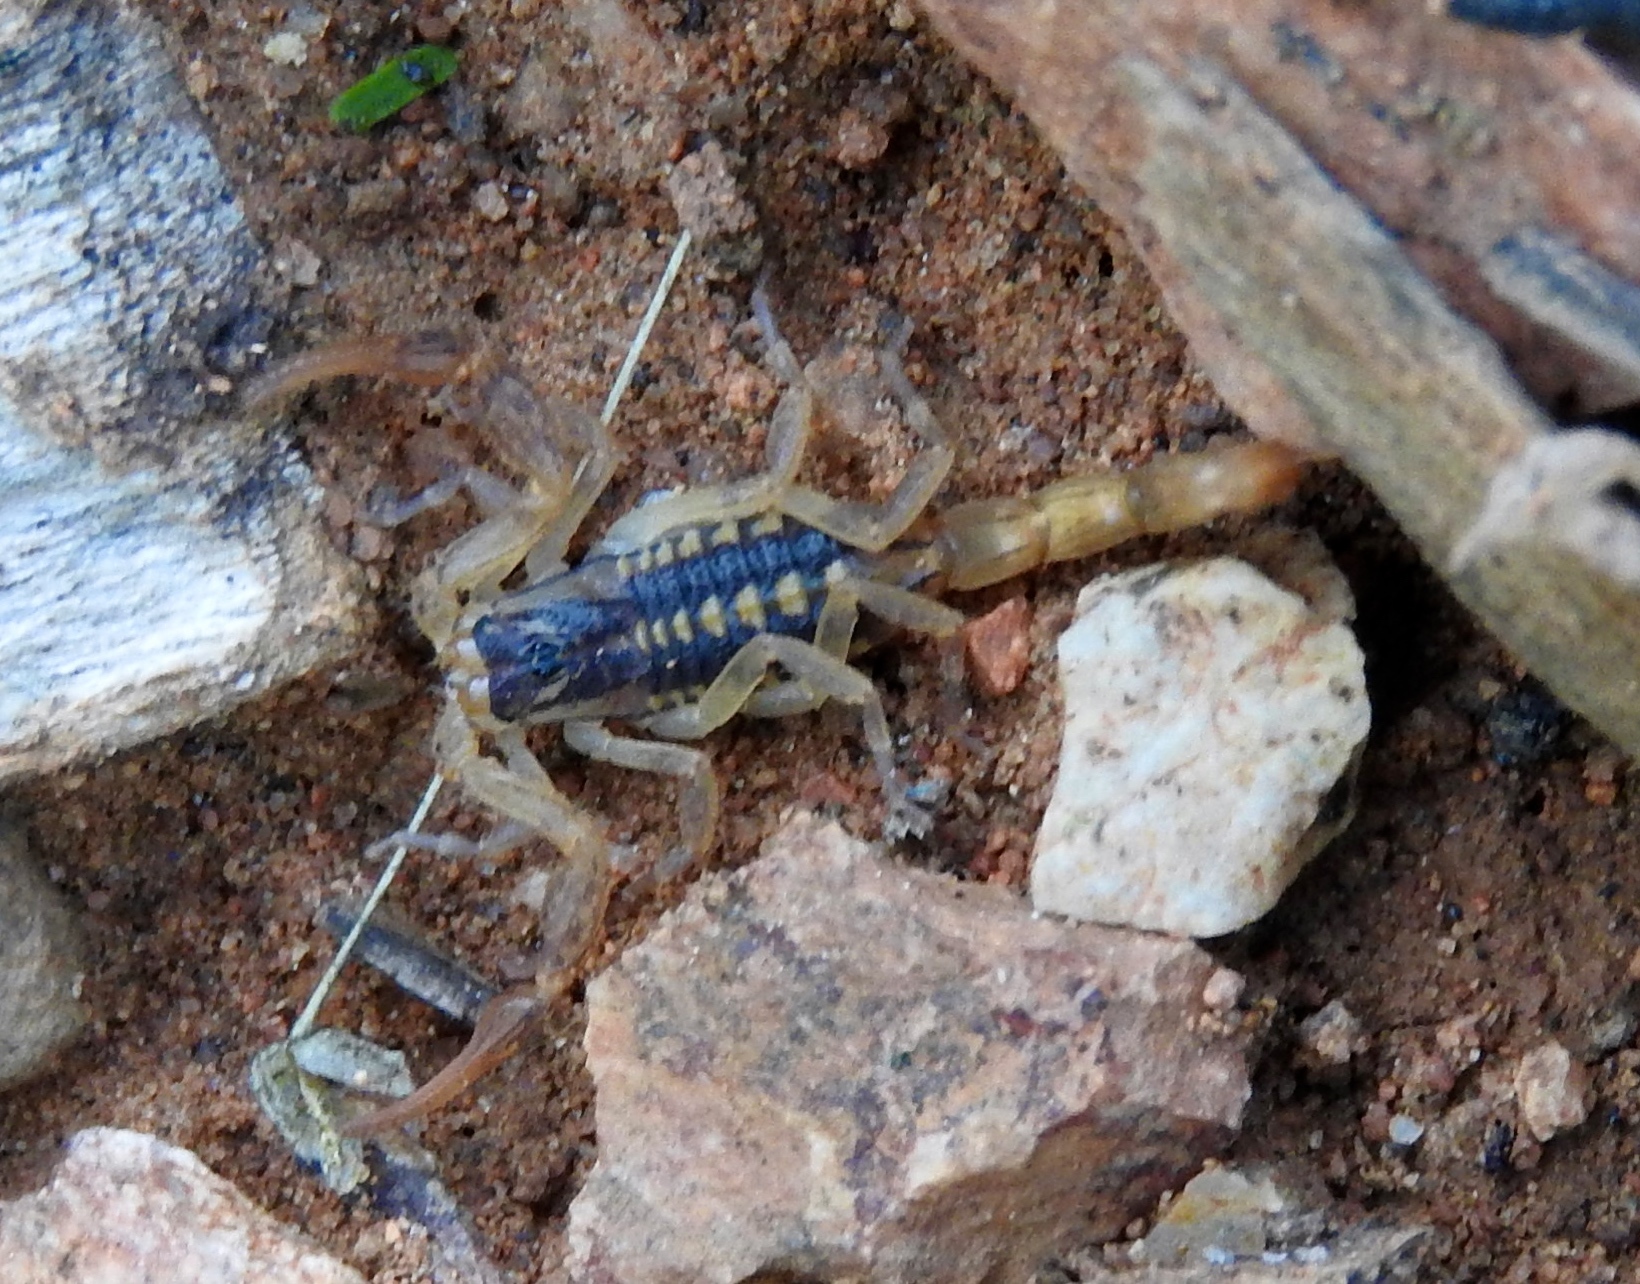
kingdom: Animalia
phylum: Arthropoda
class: Arachnida
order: Scorpiones
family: Buthidae
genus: Centruroides
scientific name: Centruroides baldazoi
